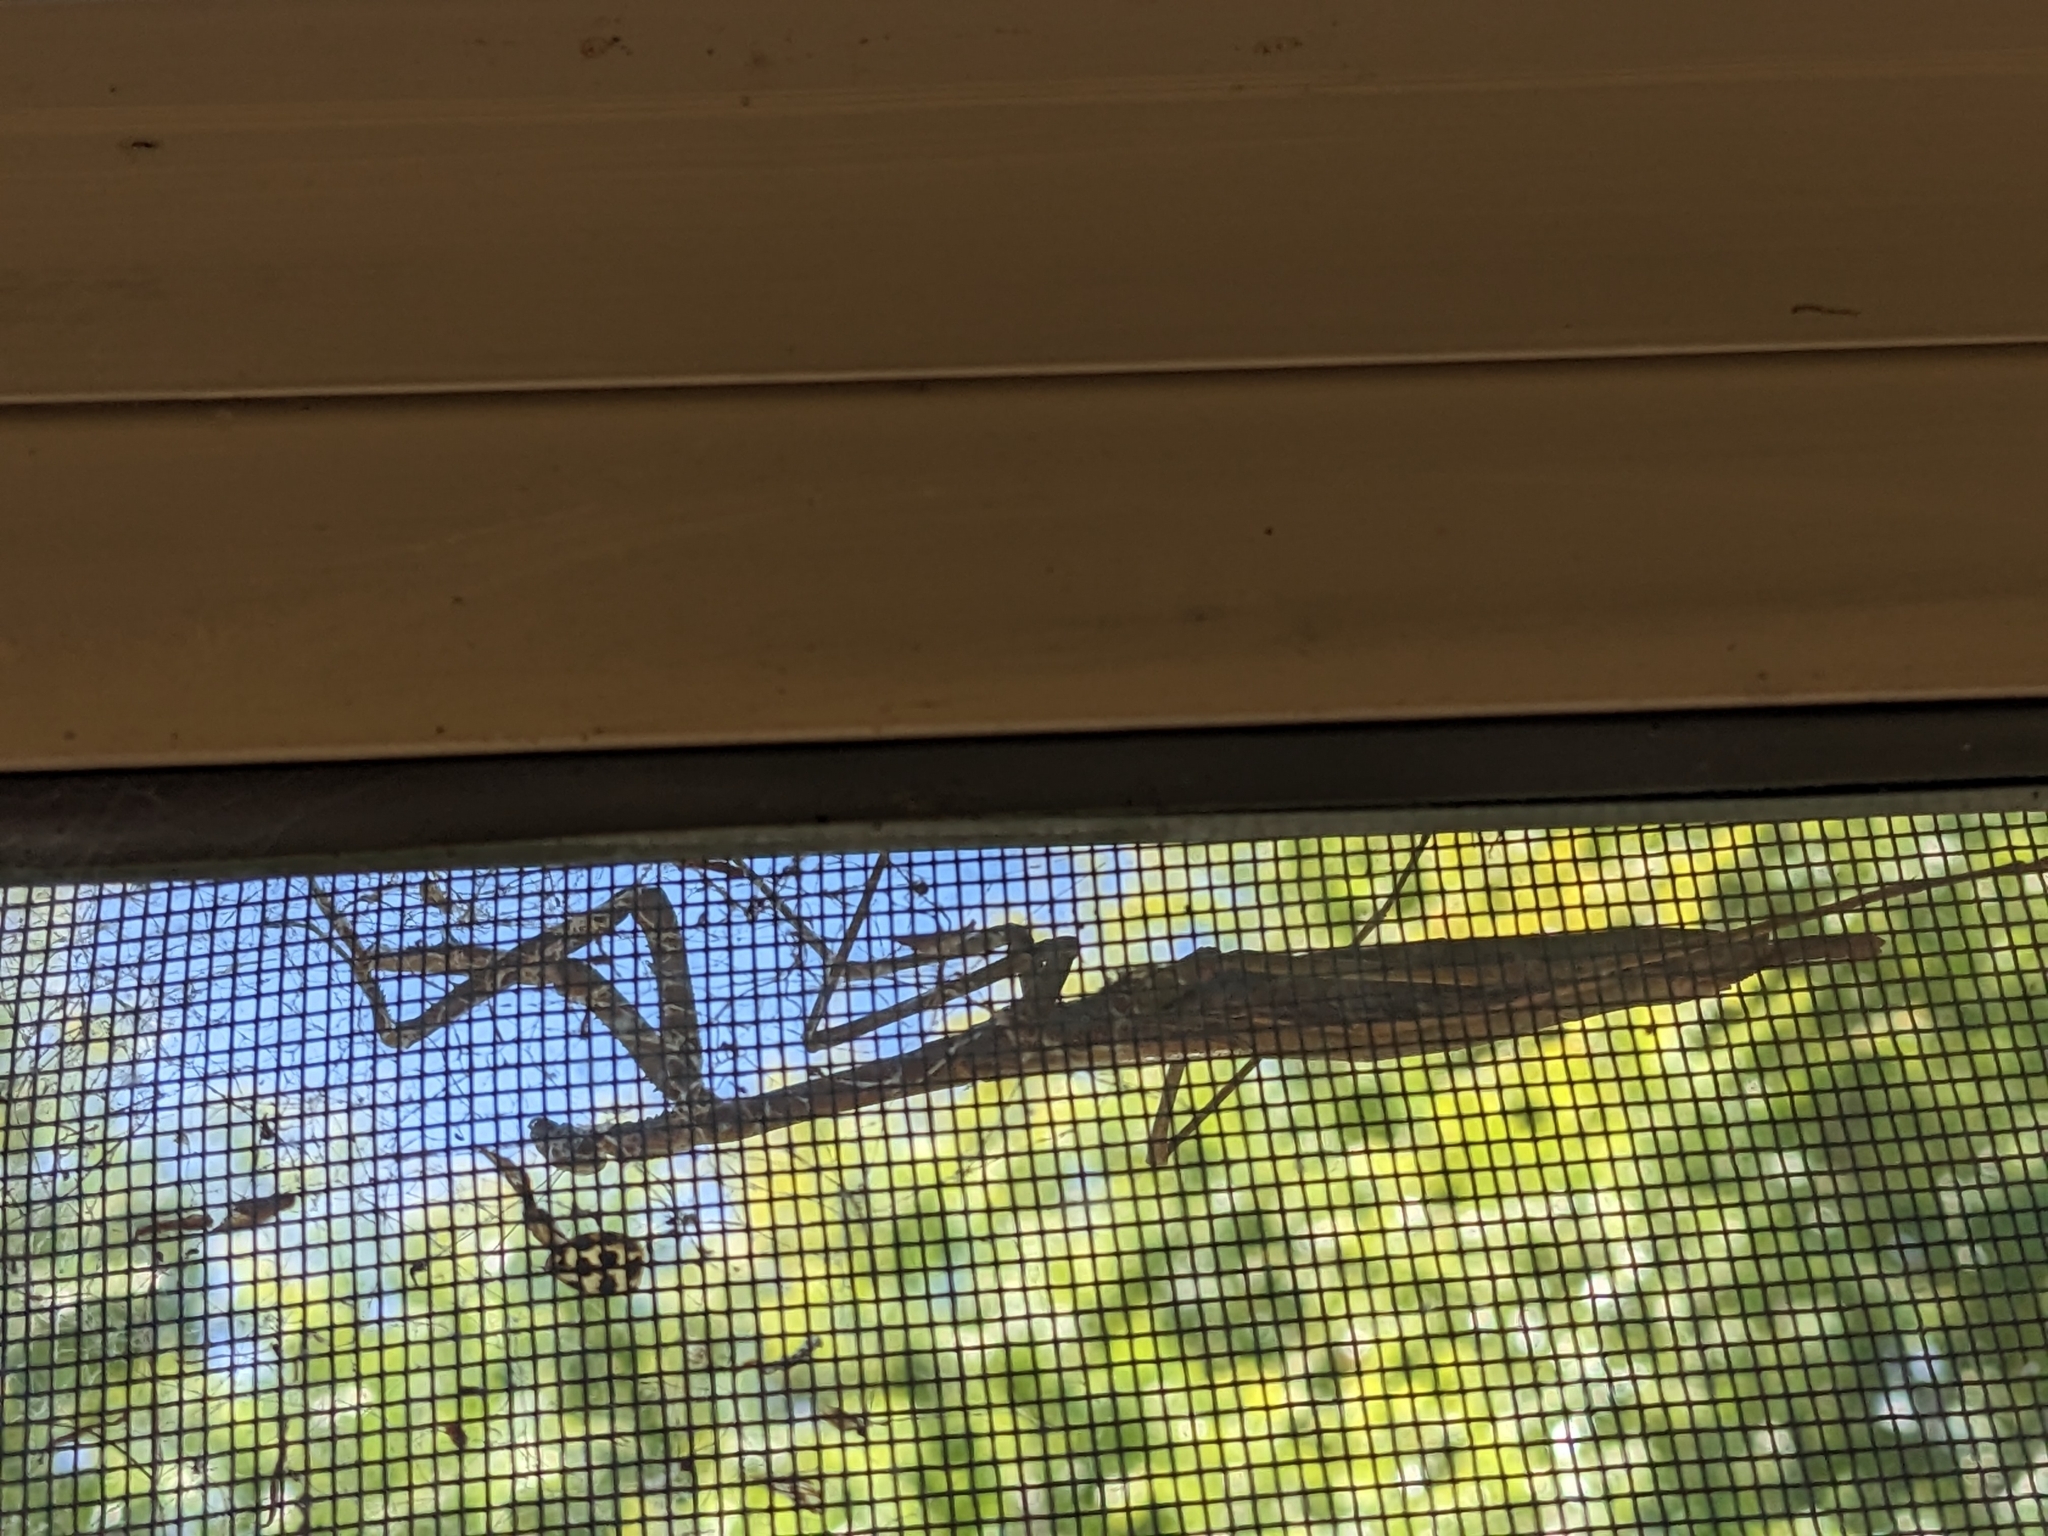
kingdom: Animalia
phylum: Arthropoda
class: Insecta
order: Mantodea
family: Mantidae
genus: Archimantis
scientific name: Archimantis sobrina
